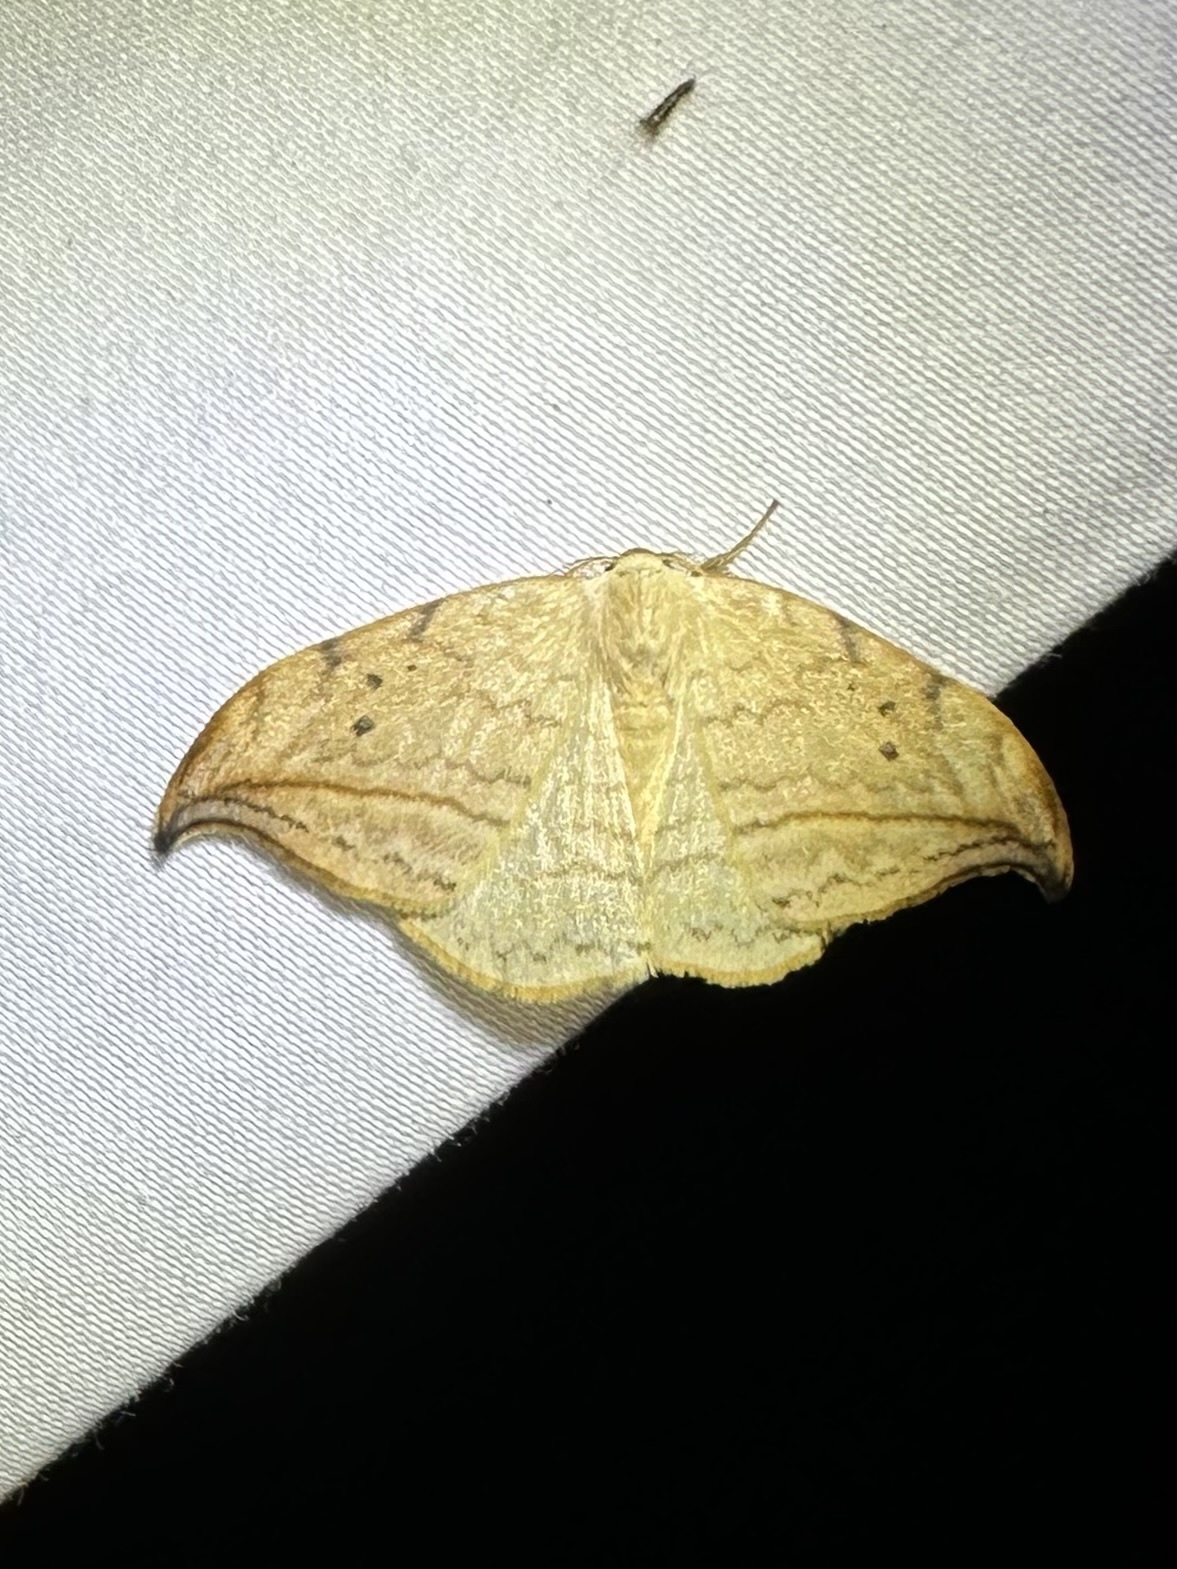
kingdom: Animalia
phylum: Arthropoda
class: Insecta
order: Lepidoptera
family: Drepanidae
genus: Drepana
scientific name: Drepana arcuata
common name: Arched hooktip moth
